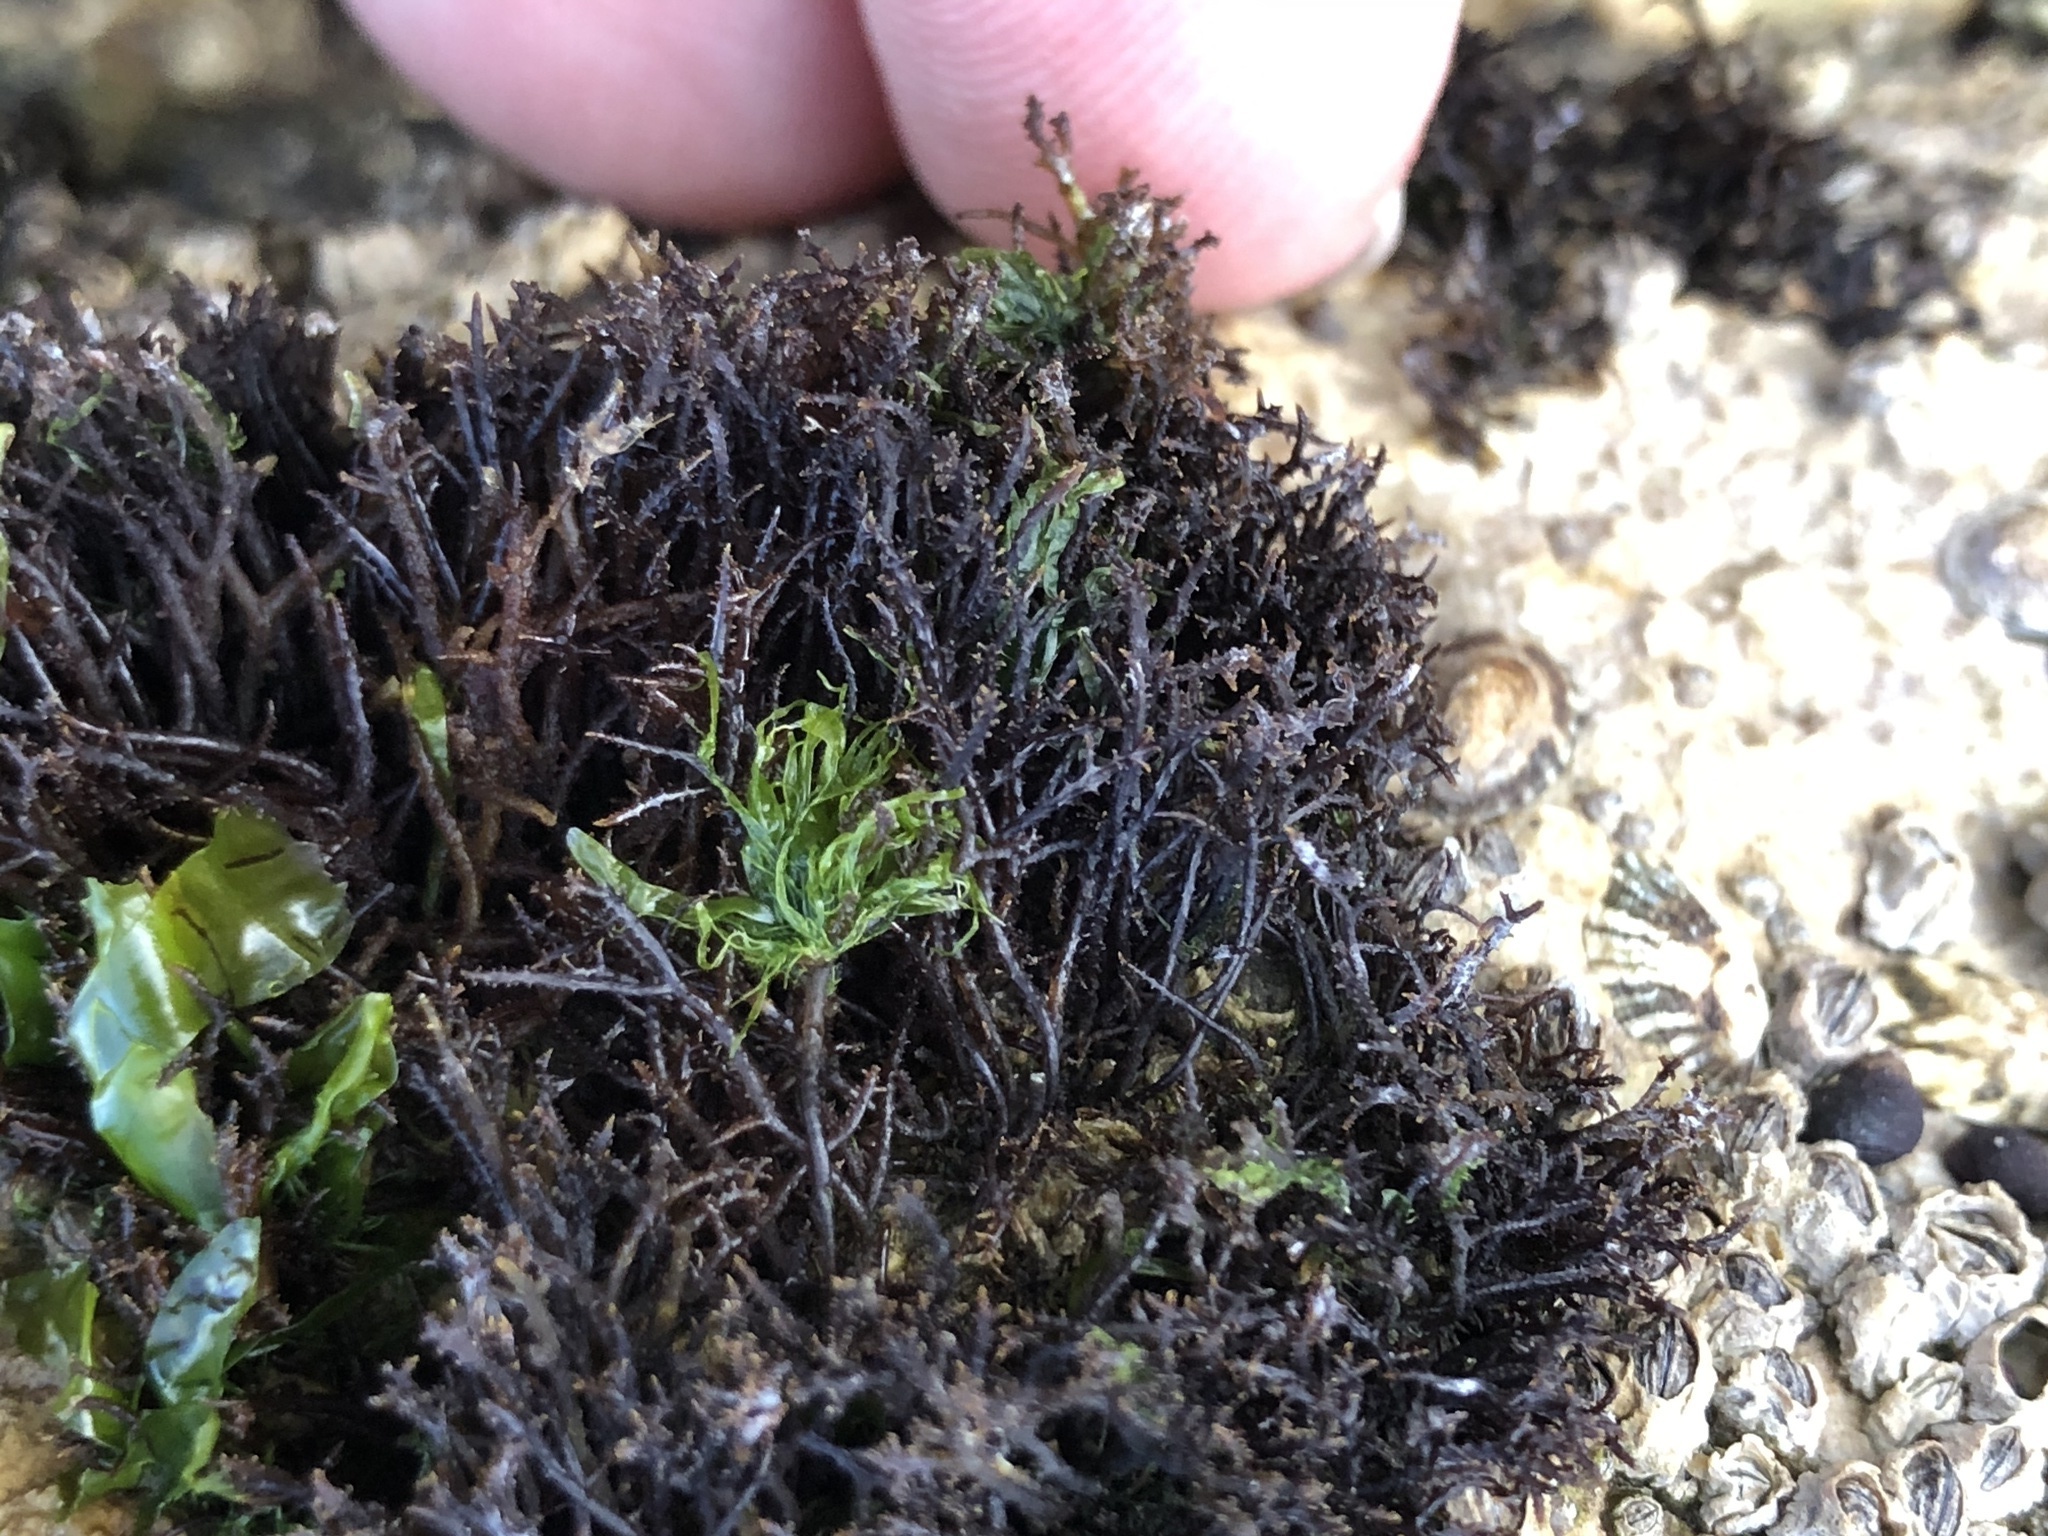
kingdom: Plantae
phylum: Rhodophyta
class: Florideophyceae
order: Gigartinales
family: Endocladiaceae
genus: Endocladia
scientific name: Endocladia muricata
